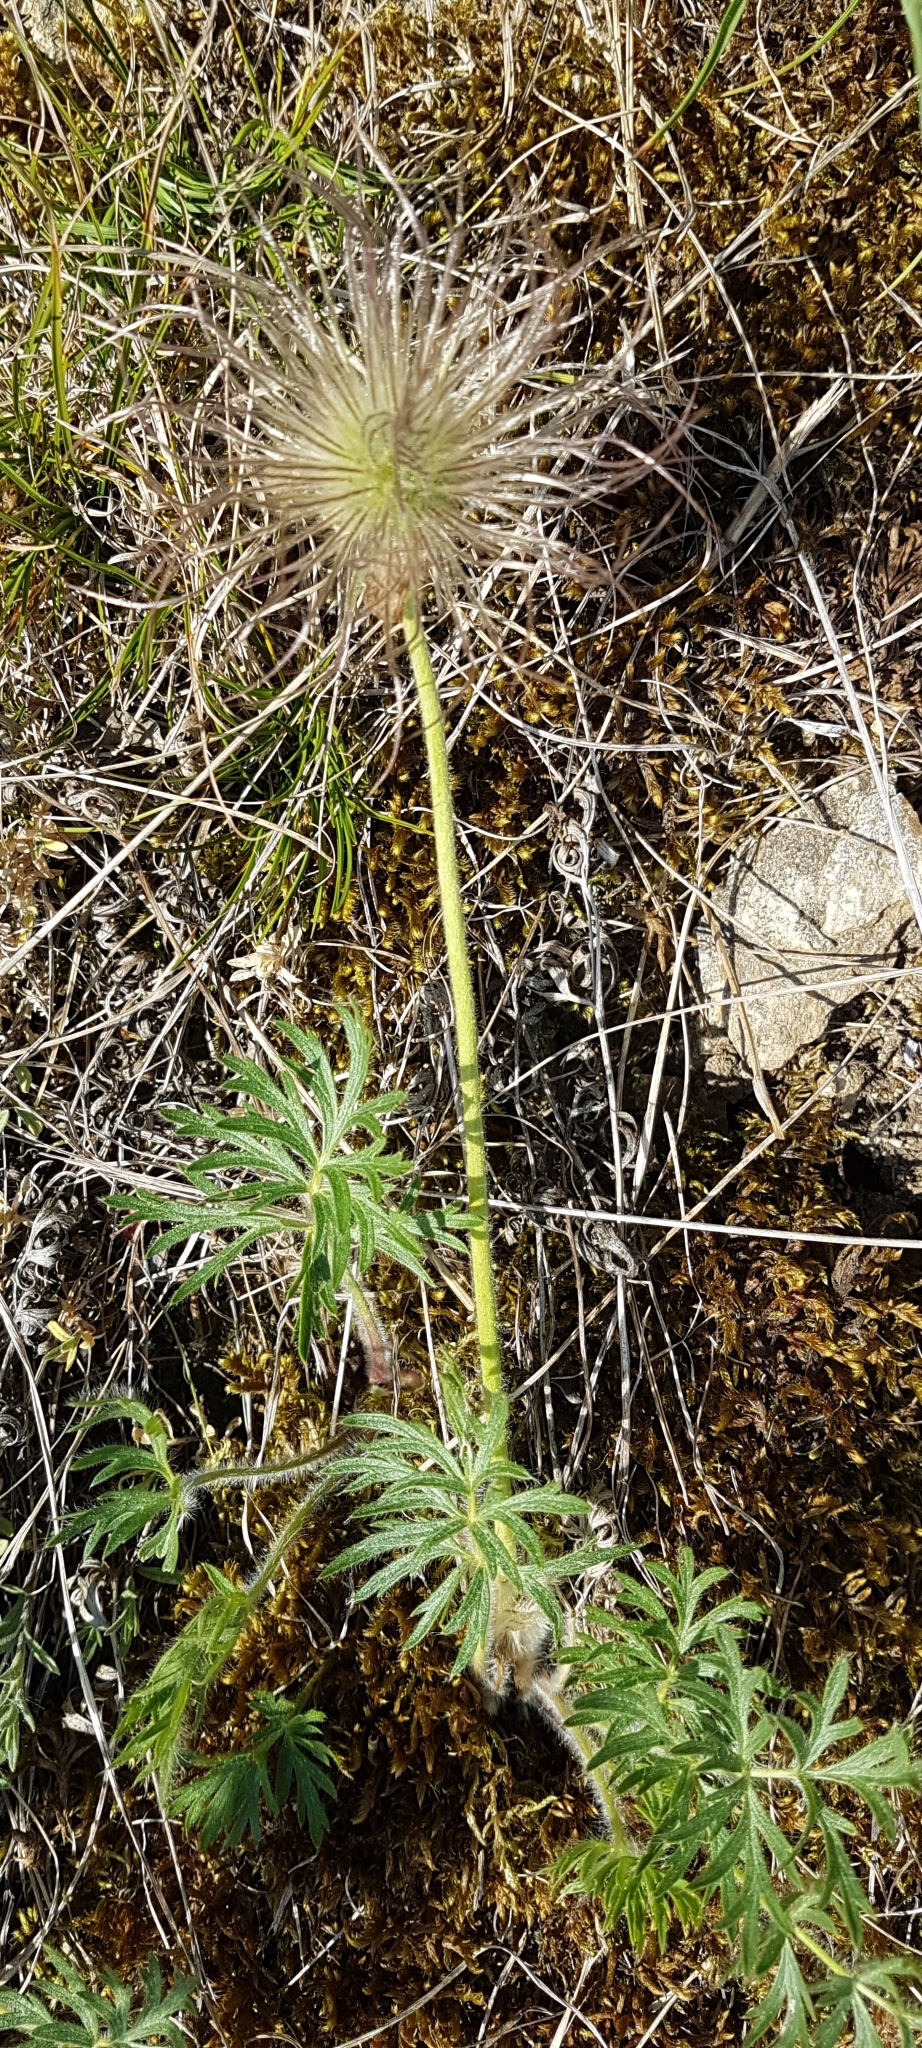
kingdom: Plantae
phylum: Tracheophyta
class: Magnoliopsida
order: Ranunculales
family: Ranunculaceae
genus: Pulsatilla
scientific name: Pulsatilla grandis
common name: Greater pasque flower
